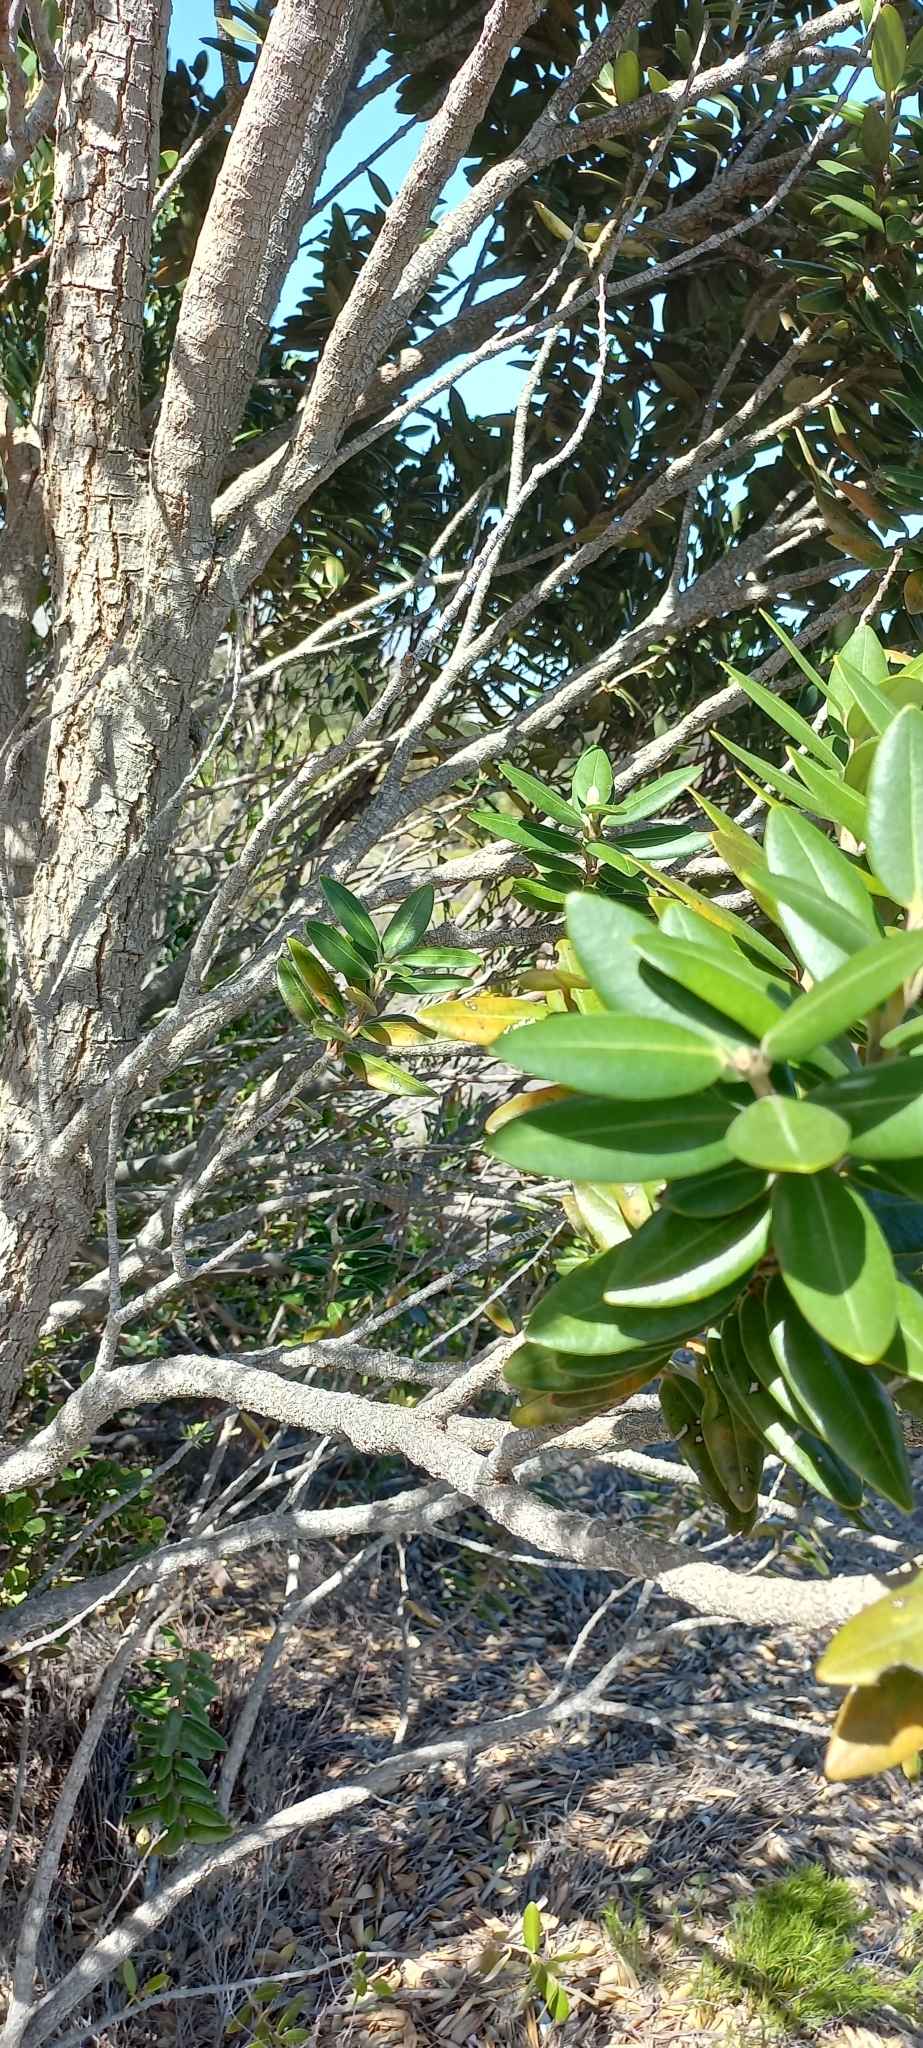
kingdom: Plantae
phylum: Tracheophyta
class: Magnoliopsida
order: Myrtales
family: Myrtaceae
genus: Metrosideros
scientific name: Metrosideros excelsa
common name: New zealand christmastree
